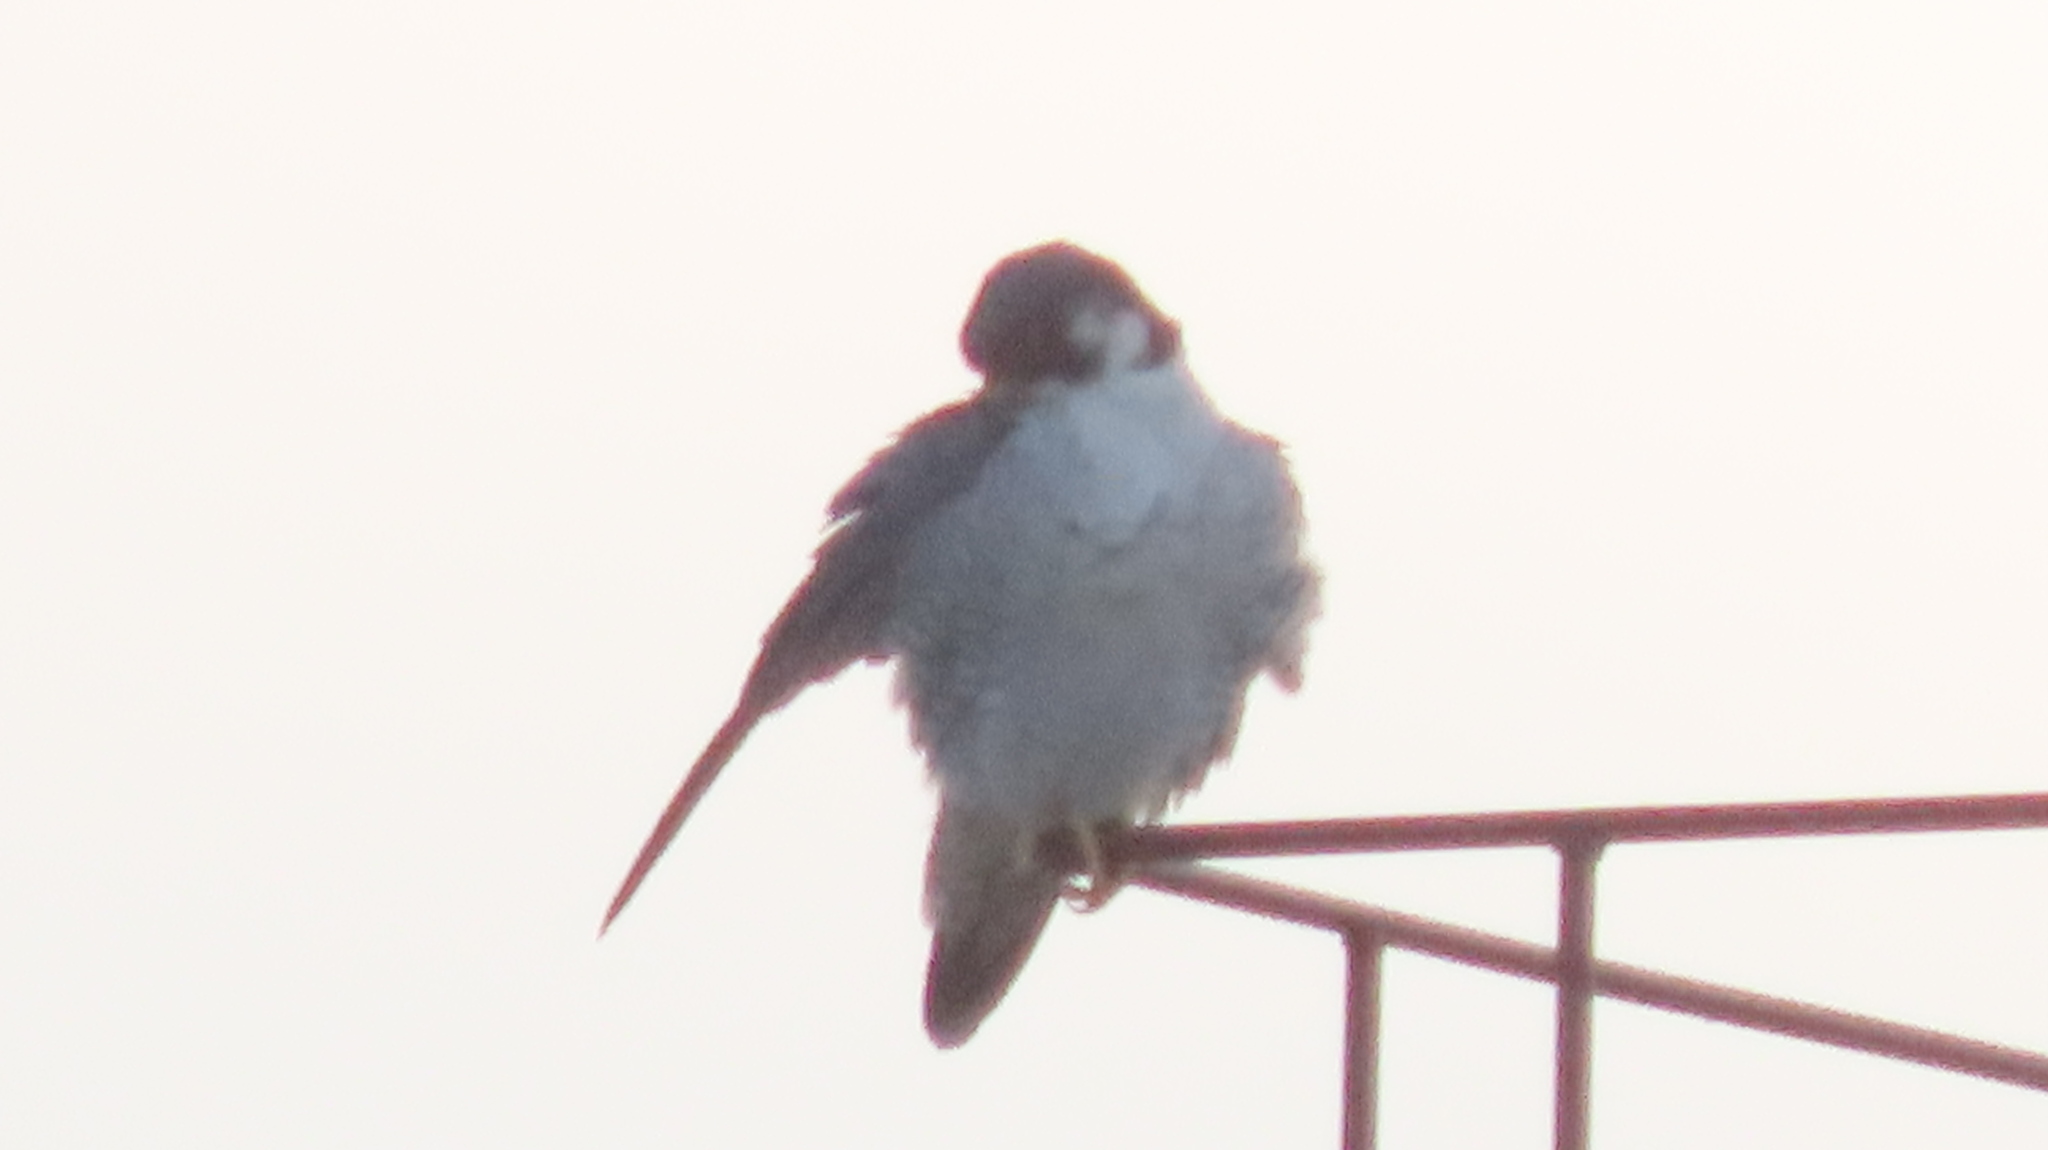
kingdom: Animalia
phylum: Chordata
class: Aves
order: Falconiformes
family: Falconidae
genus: Falco
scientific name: Falco peregrinus
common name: Peregrine falcon
